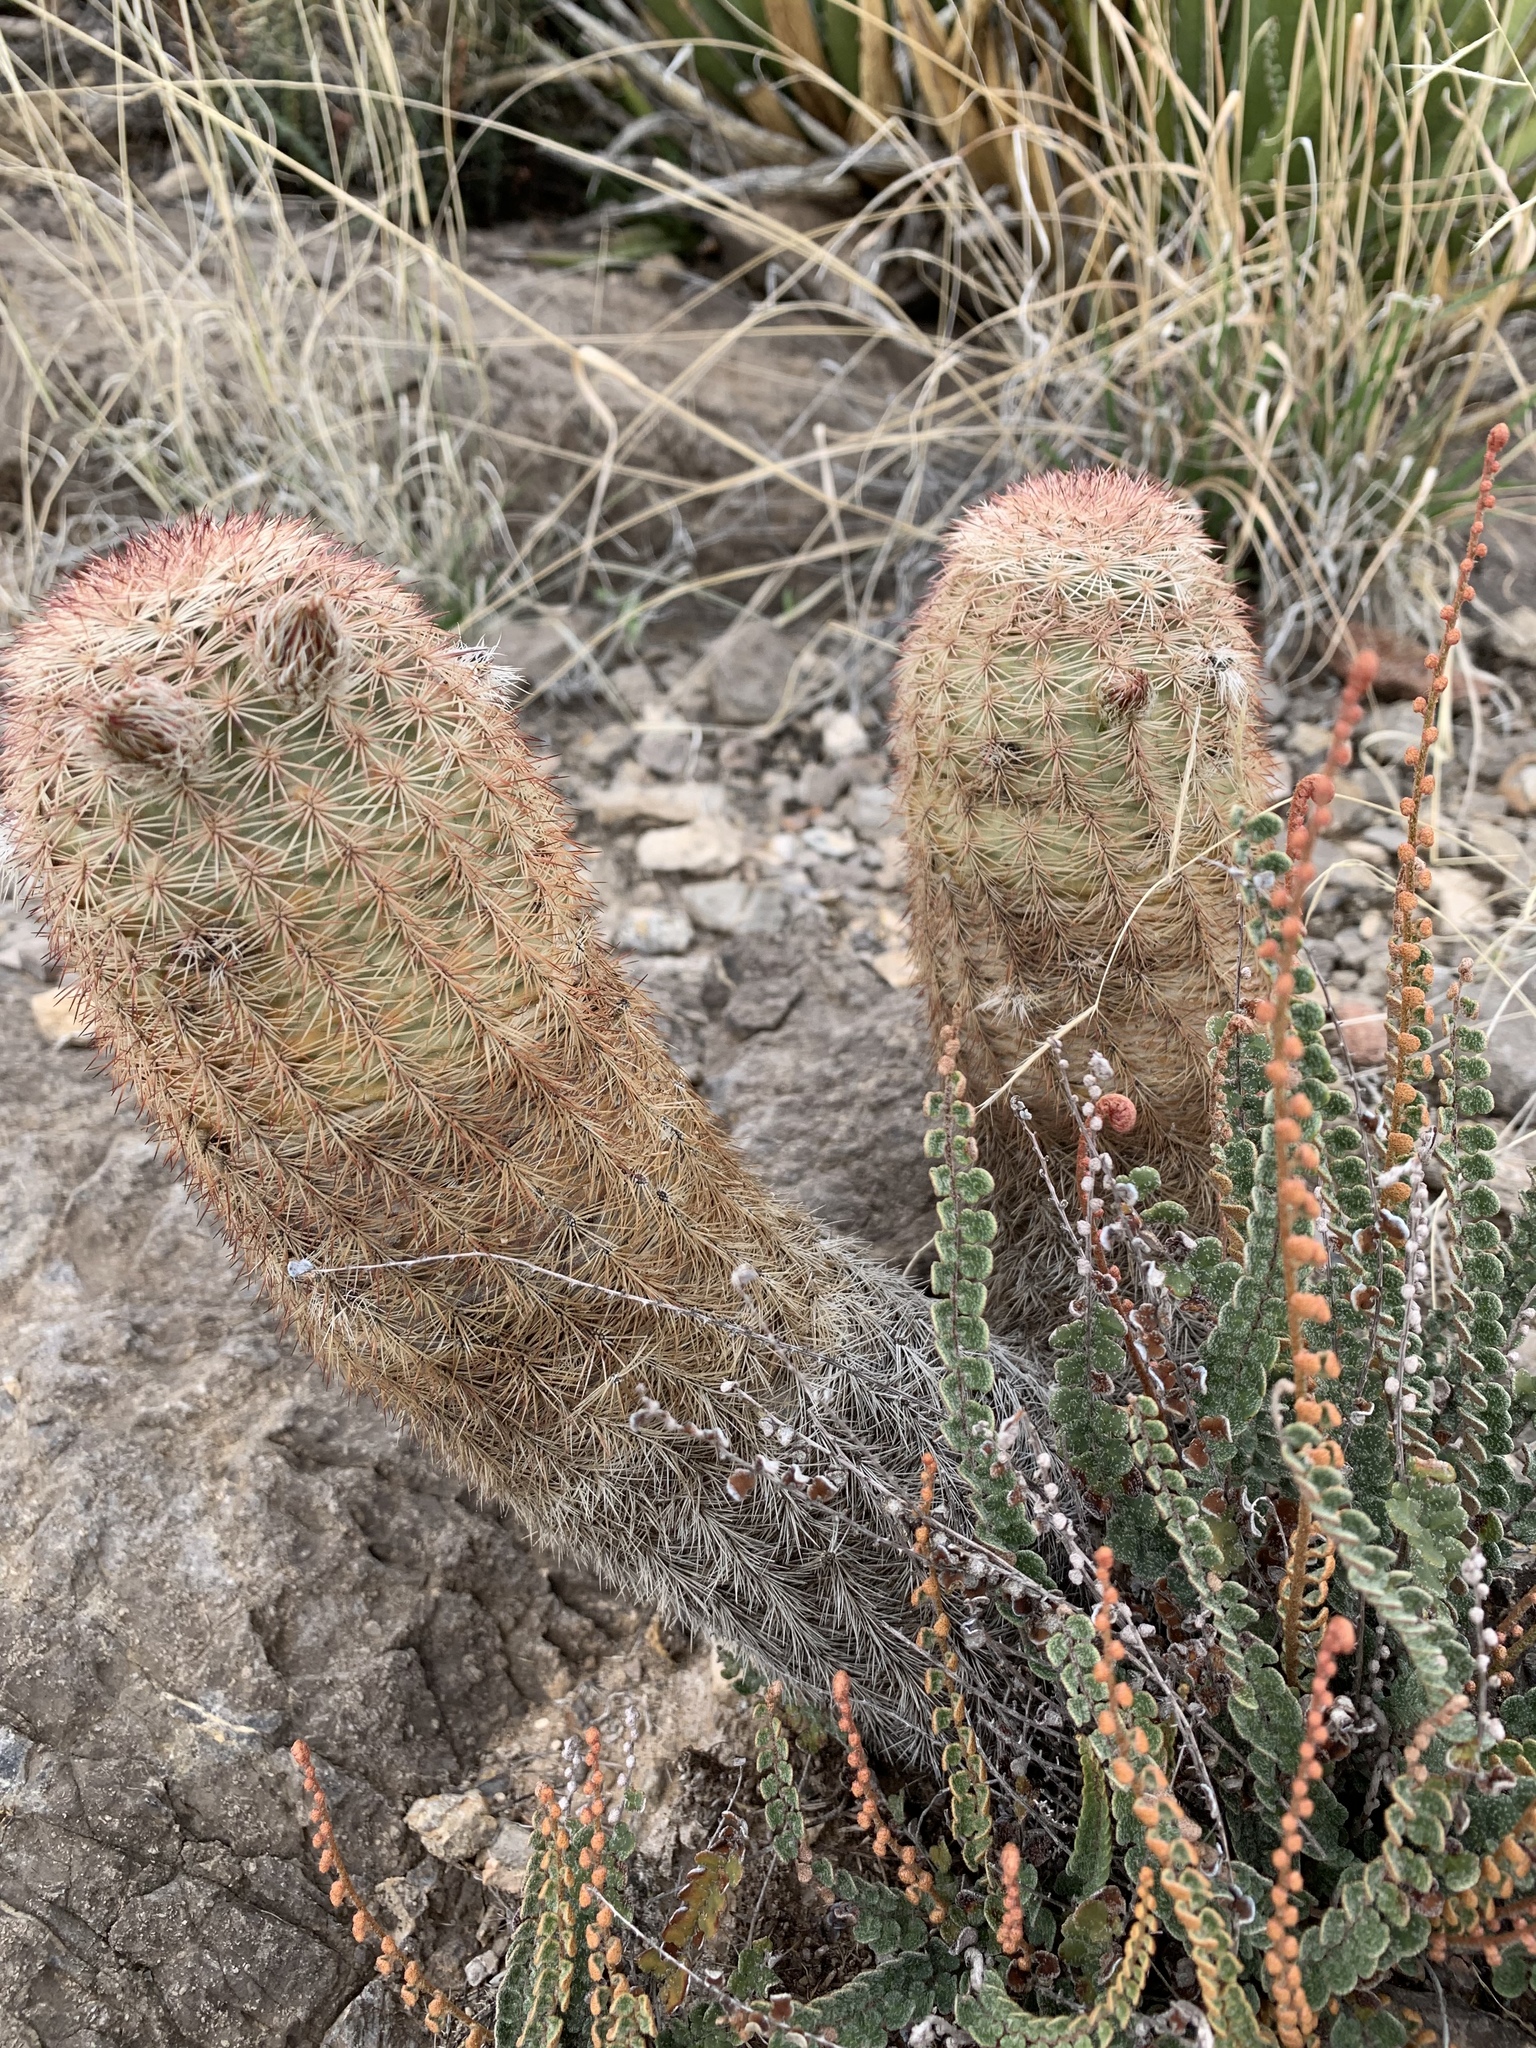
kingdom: Plantae
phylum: Tracheophyta
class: Magnoliopsida
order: Caryophyllales
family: Cactaceae
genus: Echinocereus
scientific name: Echinocereus dasyacanthus
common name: Spiny hedgehog cactus
